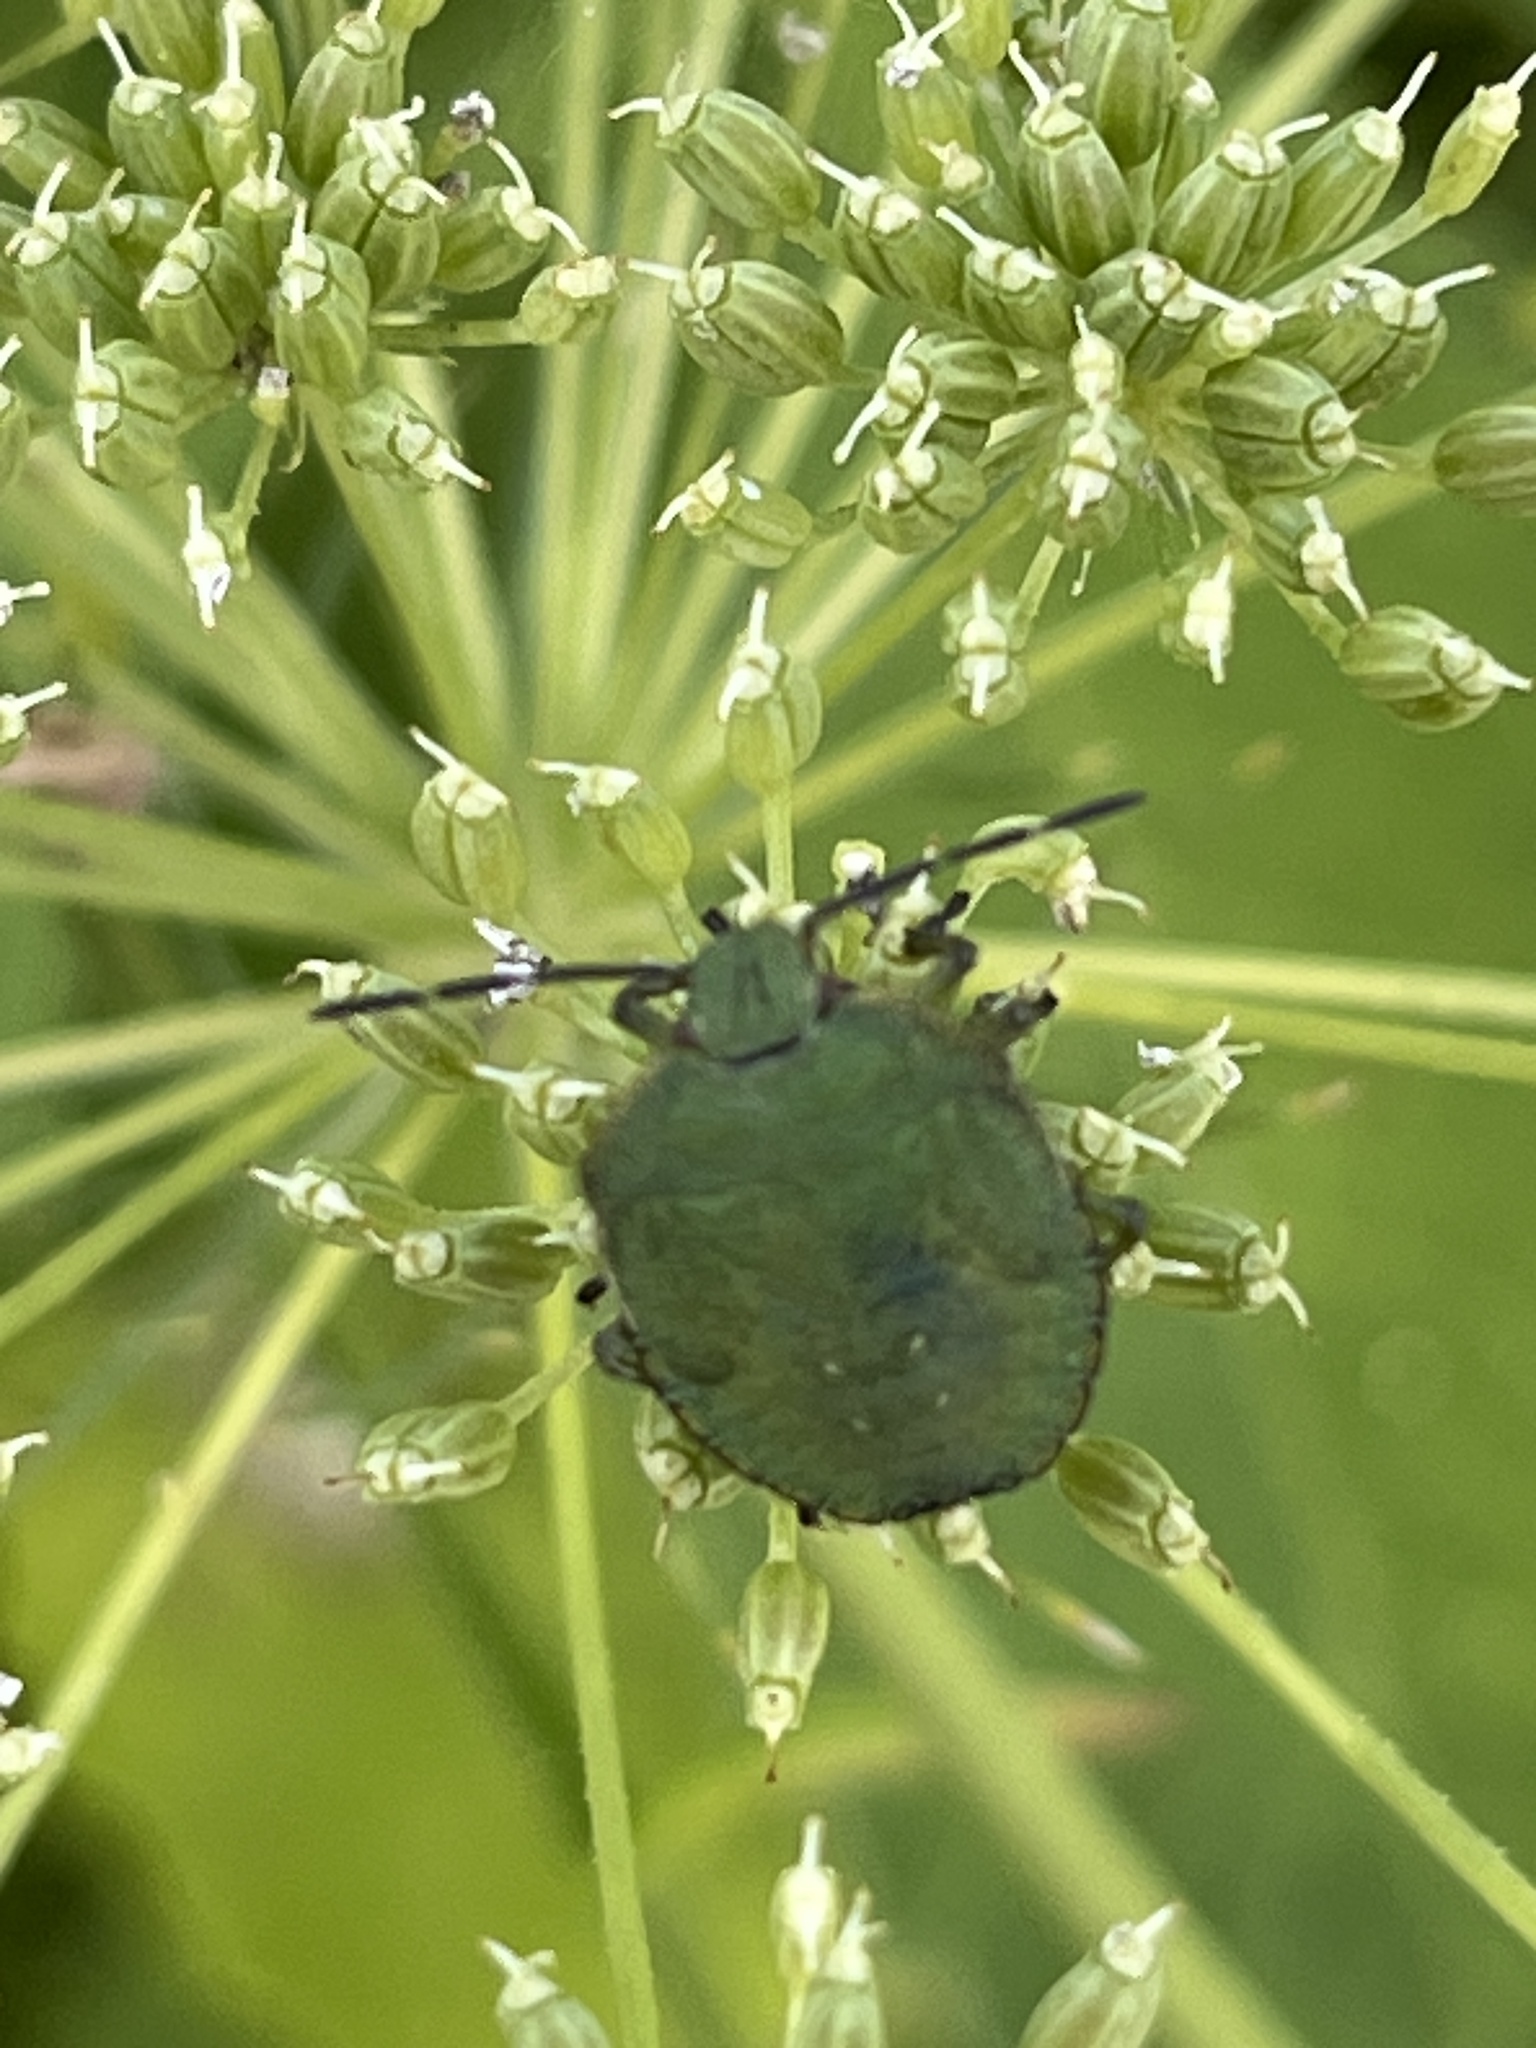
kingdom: Animalia
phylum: Arthropoda
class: Insecta
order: Hemiptera
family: Pentatomidae
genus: Palomena
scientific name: Palomena prasina
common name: Green shieldbug
